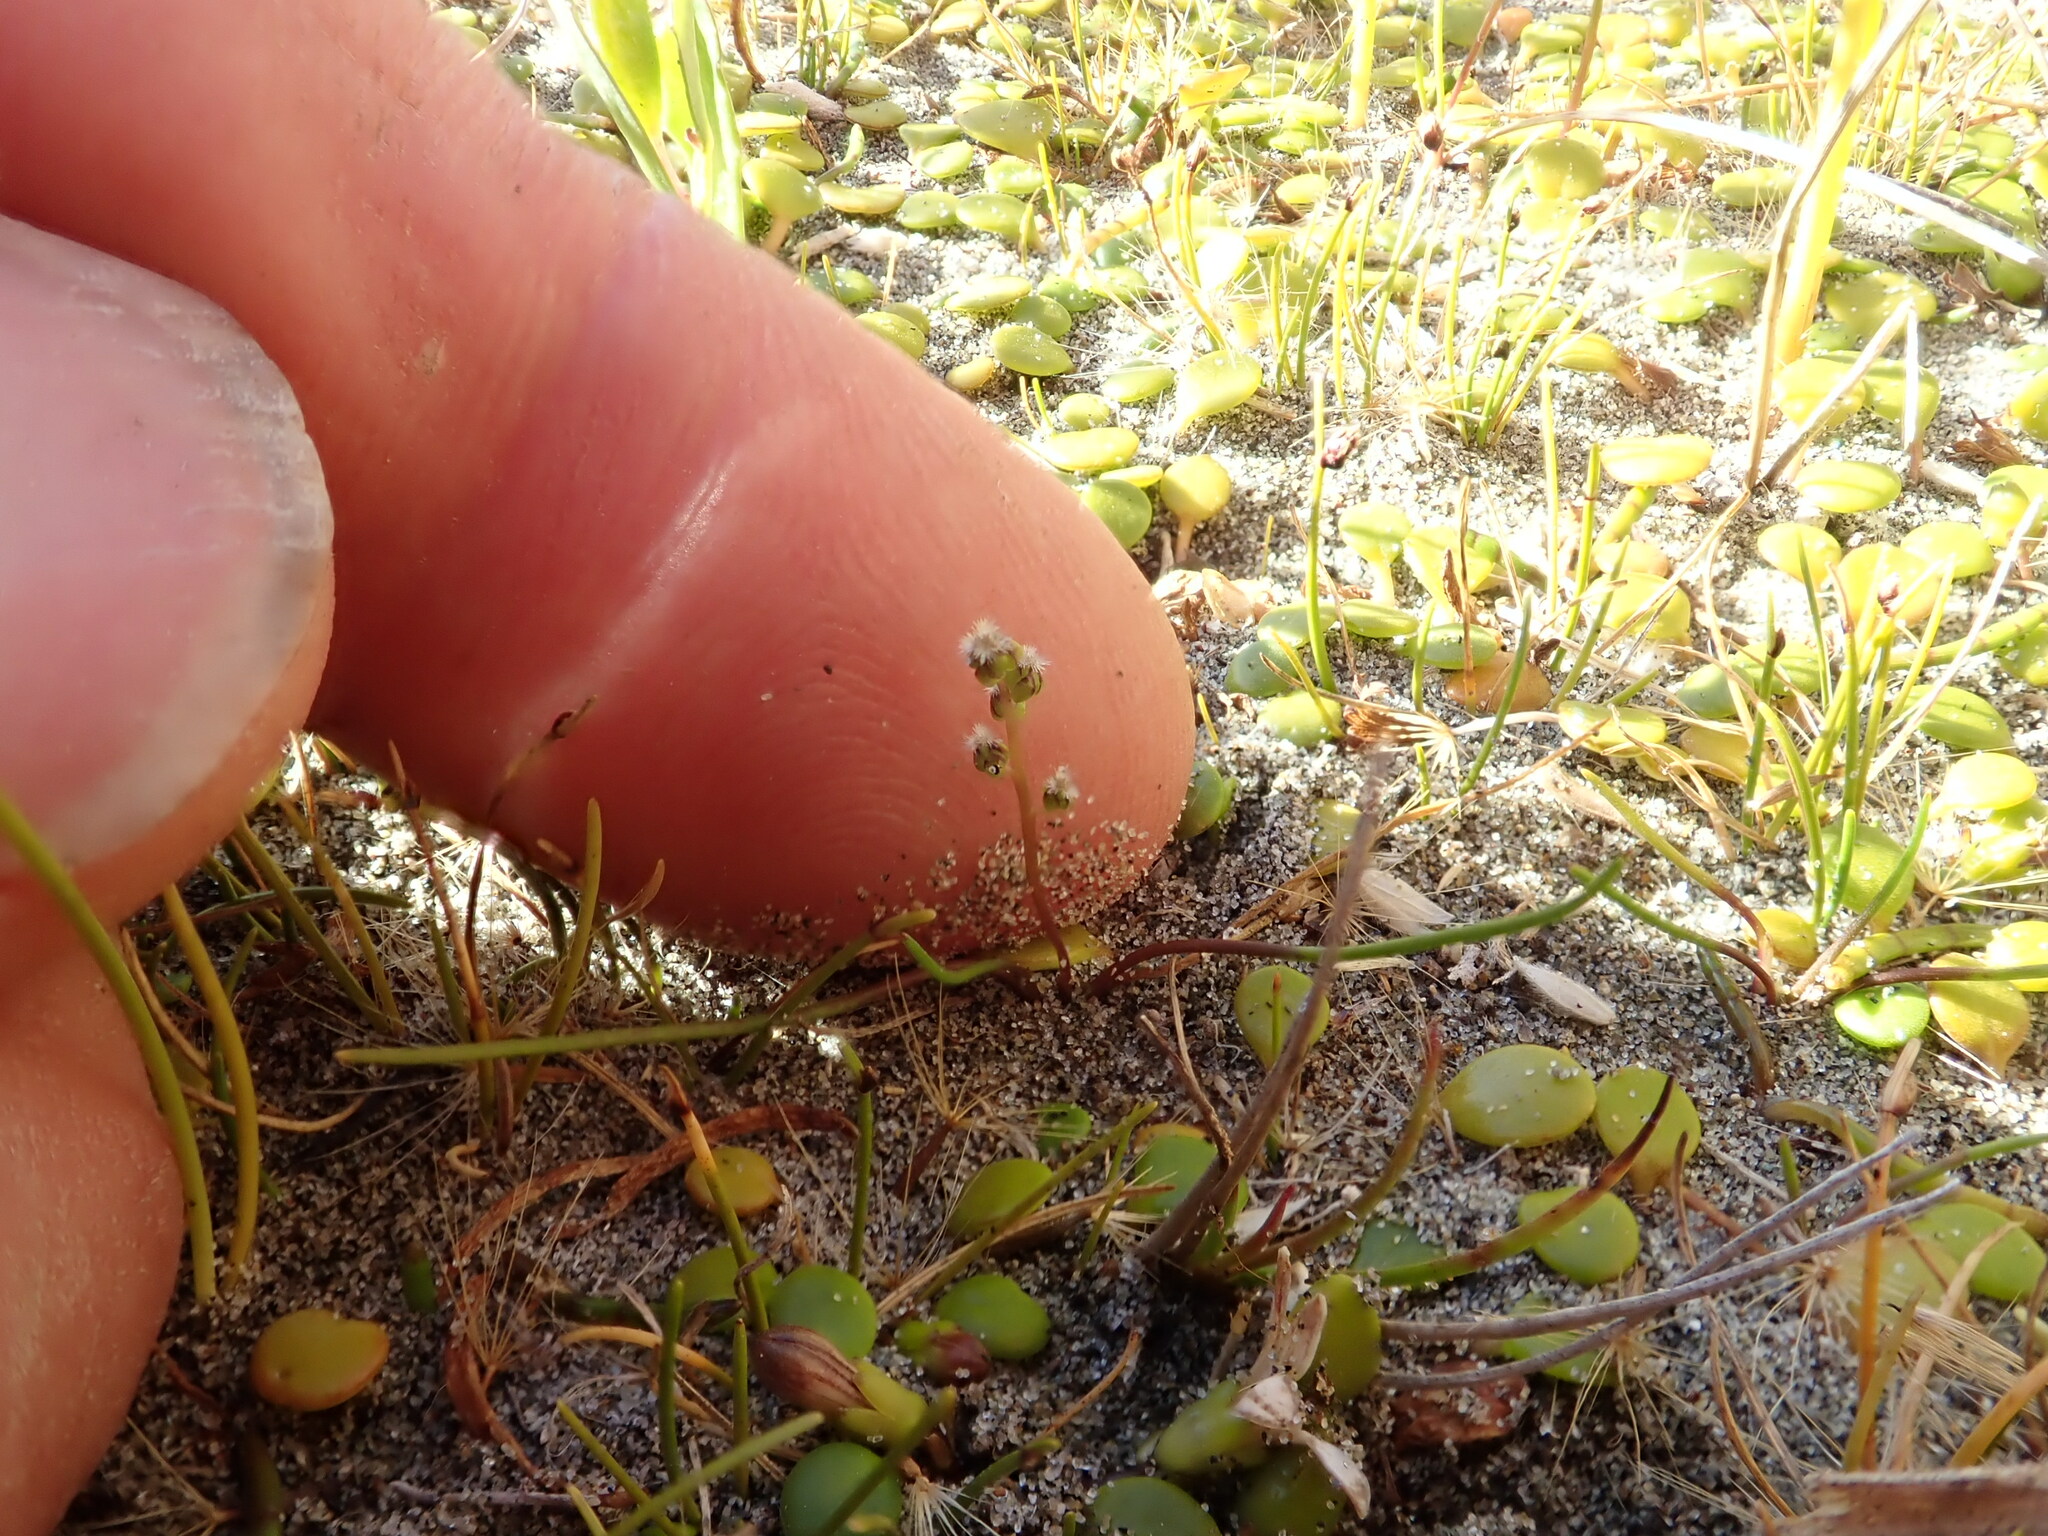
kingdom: Plantae
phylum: Tracheophyta
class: Liliopsida
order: Alismatales
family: Juncaginaceae
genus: Triglochin
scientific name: Triglochin striata
